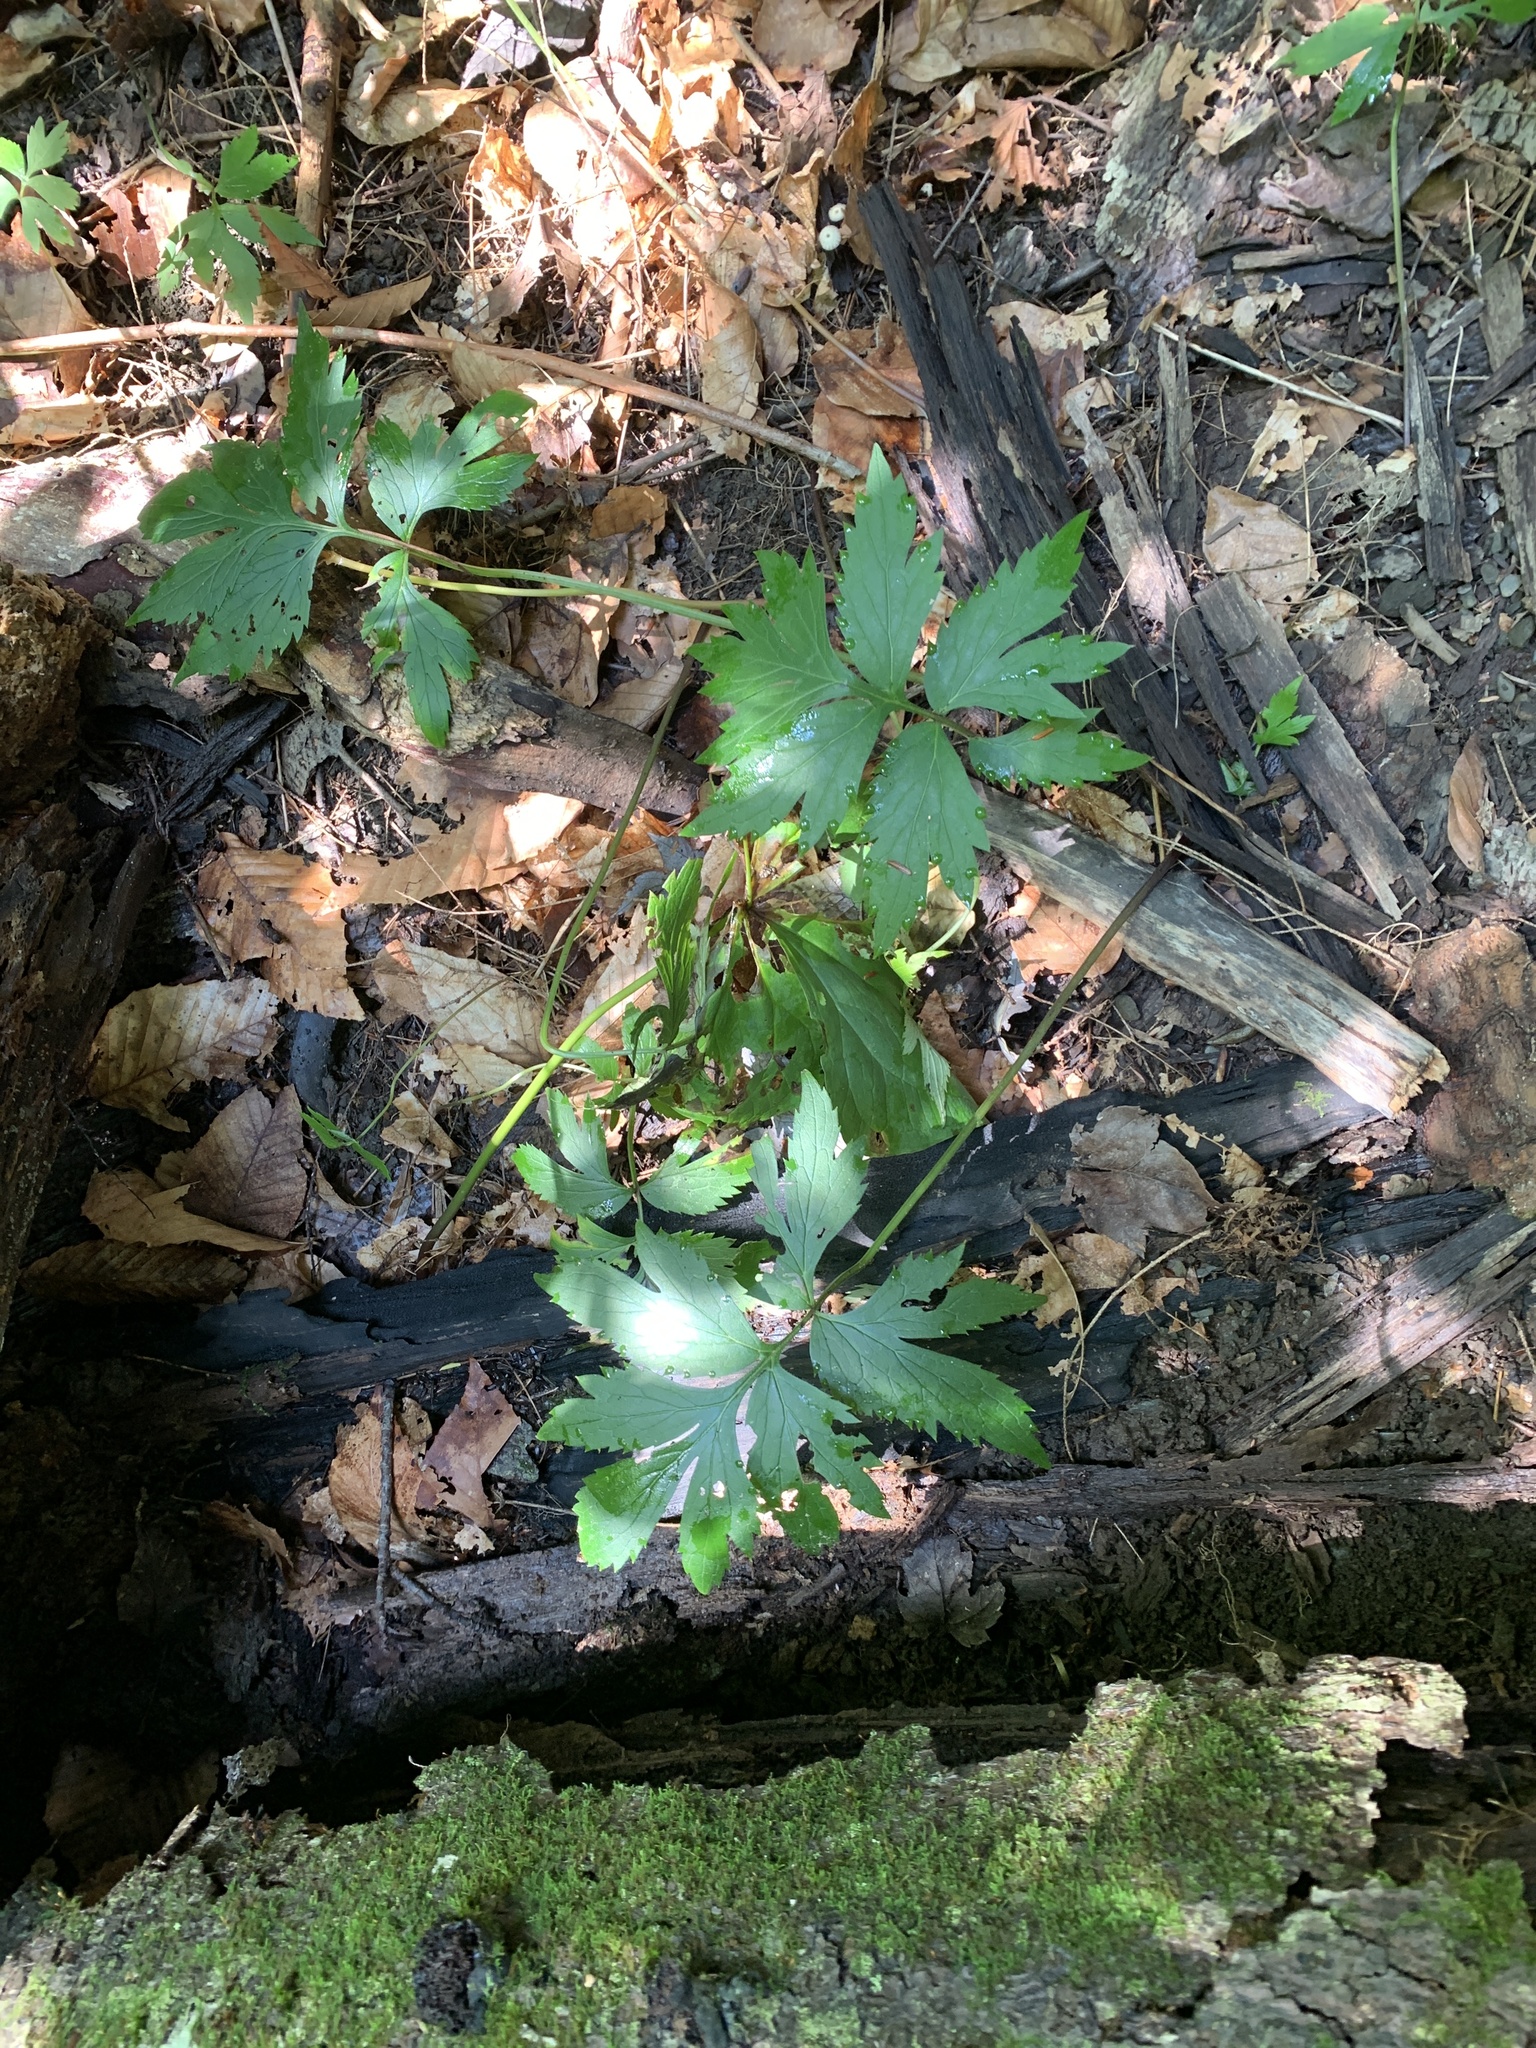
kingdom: Plantae
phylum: Tracheophyta
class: Magnoliopsida
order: Boraginales
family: Hydrophyllaceae
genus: Hydrophyllum
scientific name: Hydrophyllum virginianum
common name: Virginia waterleaf
